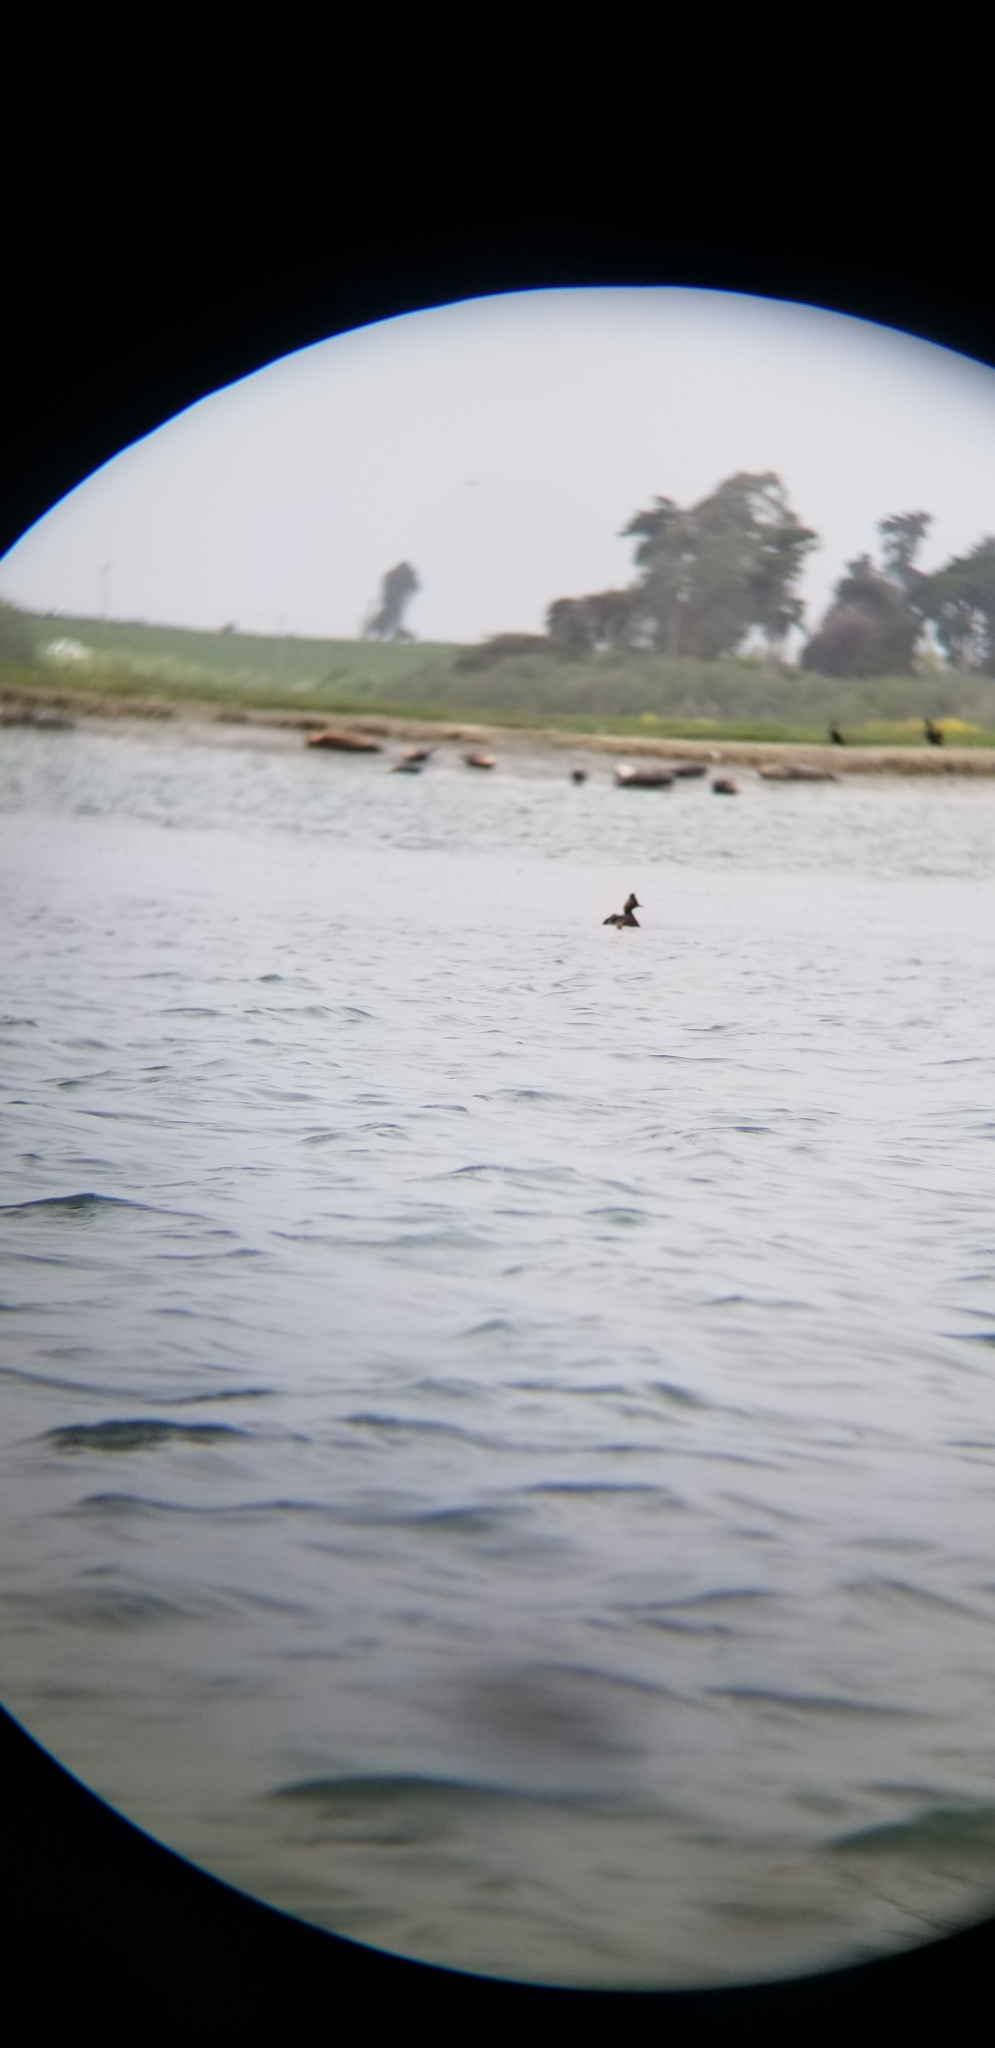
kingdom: Animalia
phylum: Chordata
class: Aves
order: Podicipediformes
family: Podicipedidae
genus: Podiceps
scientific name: Podiceps nigricollis
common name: Black-necked grebe
